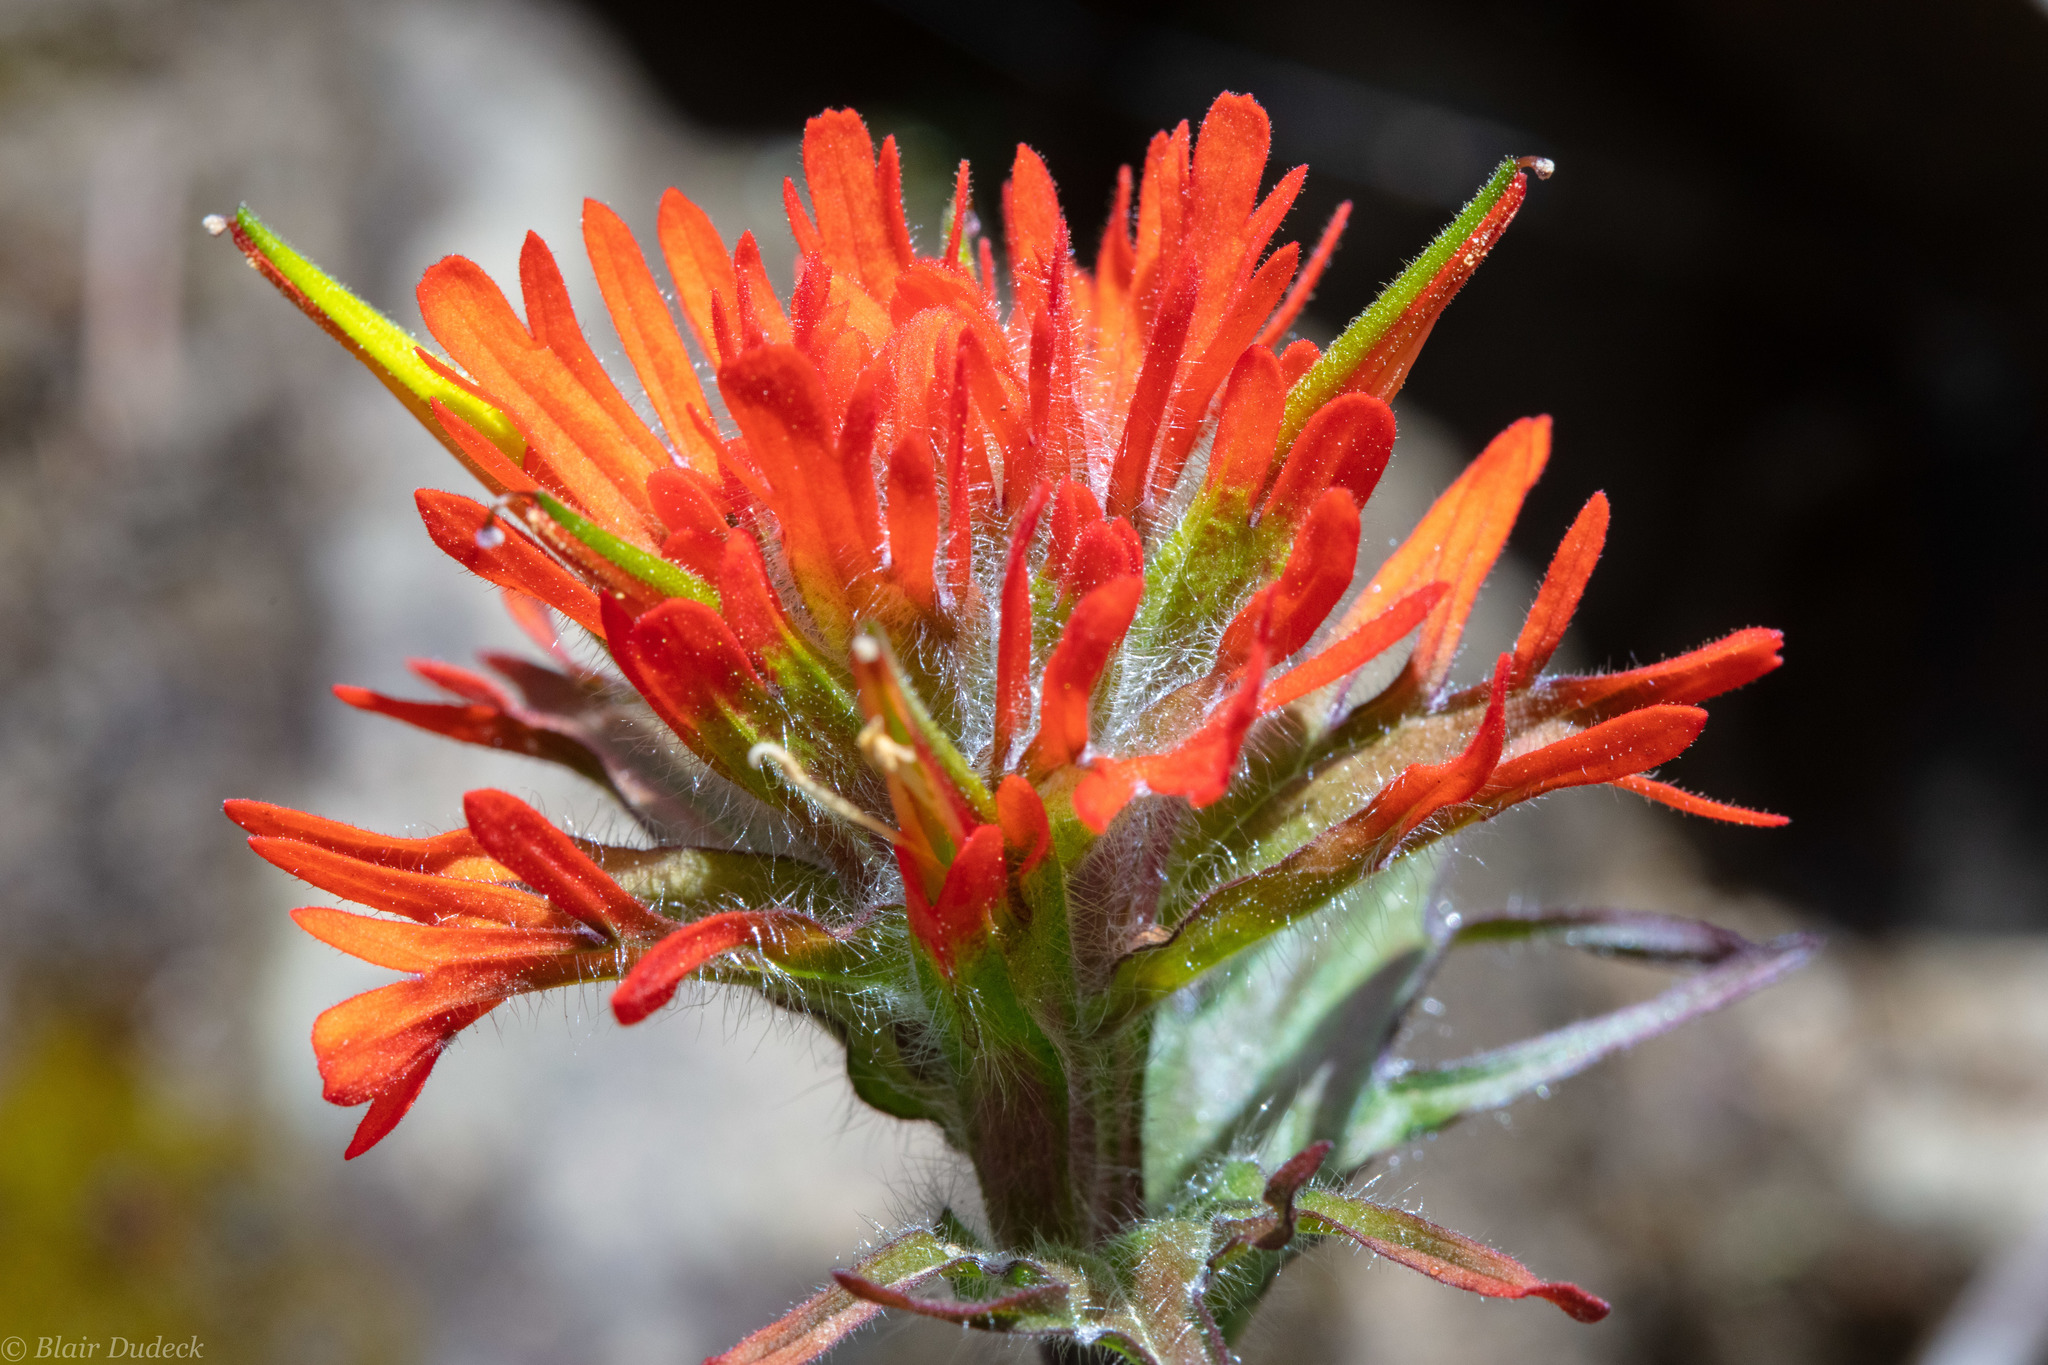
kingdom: Plantae
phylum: Tracheophyta
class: Magnoliopsida
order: Lamiales
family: Orobanchaceae
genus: Castilleja
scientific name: Castilleja hispida
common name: Bristly paintbrush
